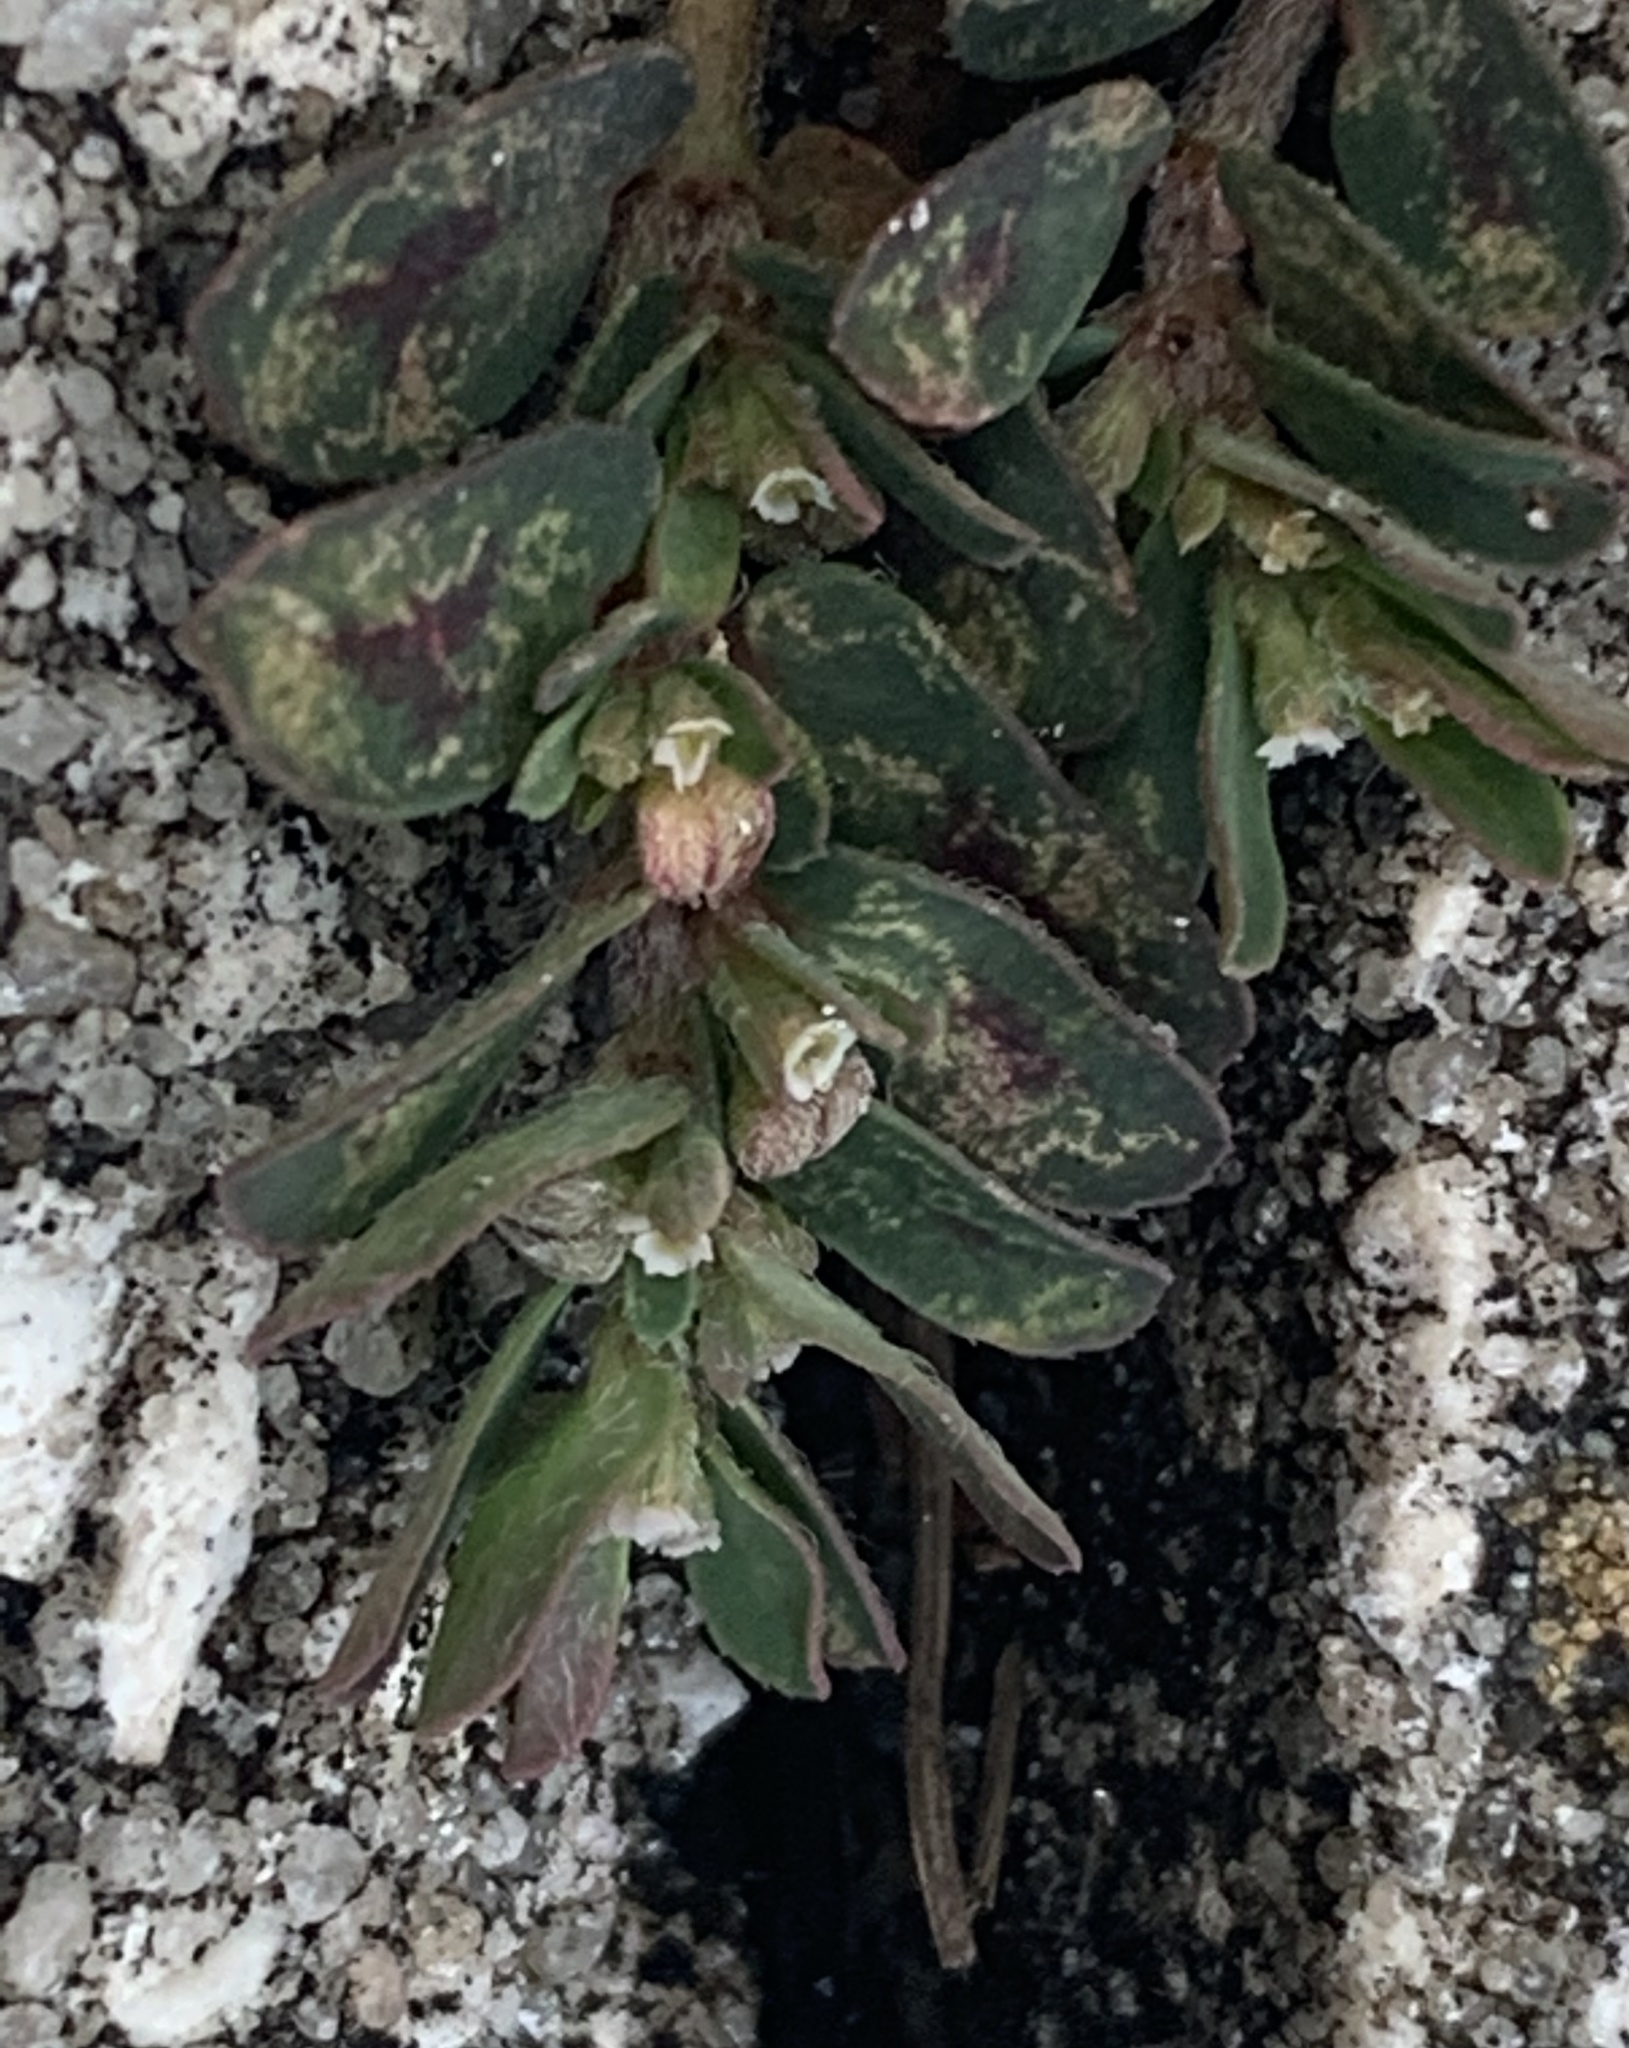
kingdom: Plantae
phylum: Tracheophyta
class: Magnoliopsida
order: Malpighiales
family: Euphorbiaceae
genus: Euphorbia
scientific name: Euphorbia maculata
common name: Spotted spurge
